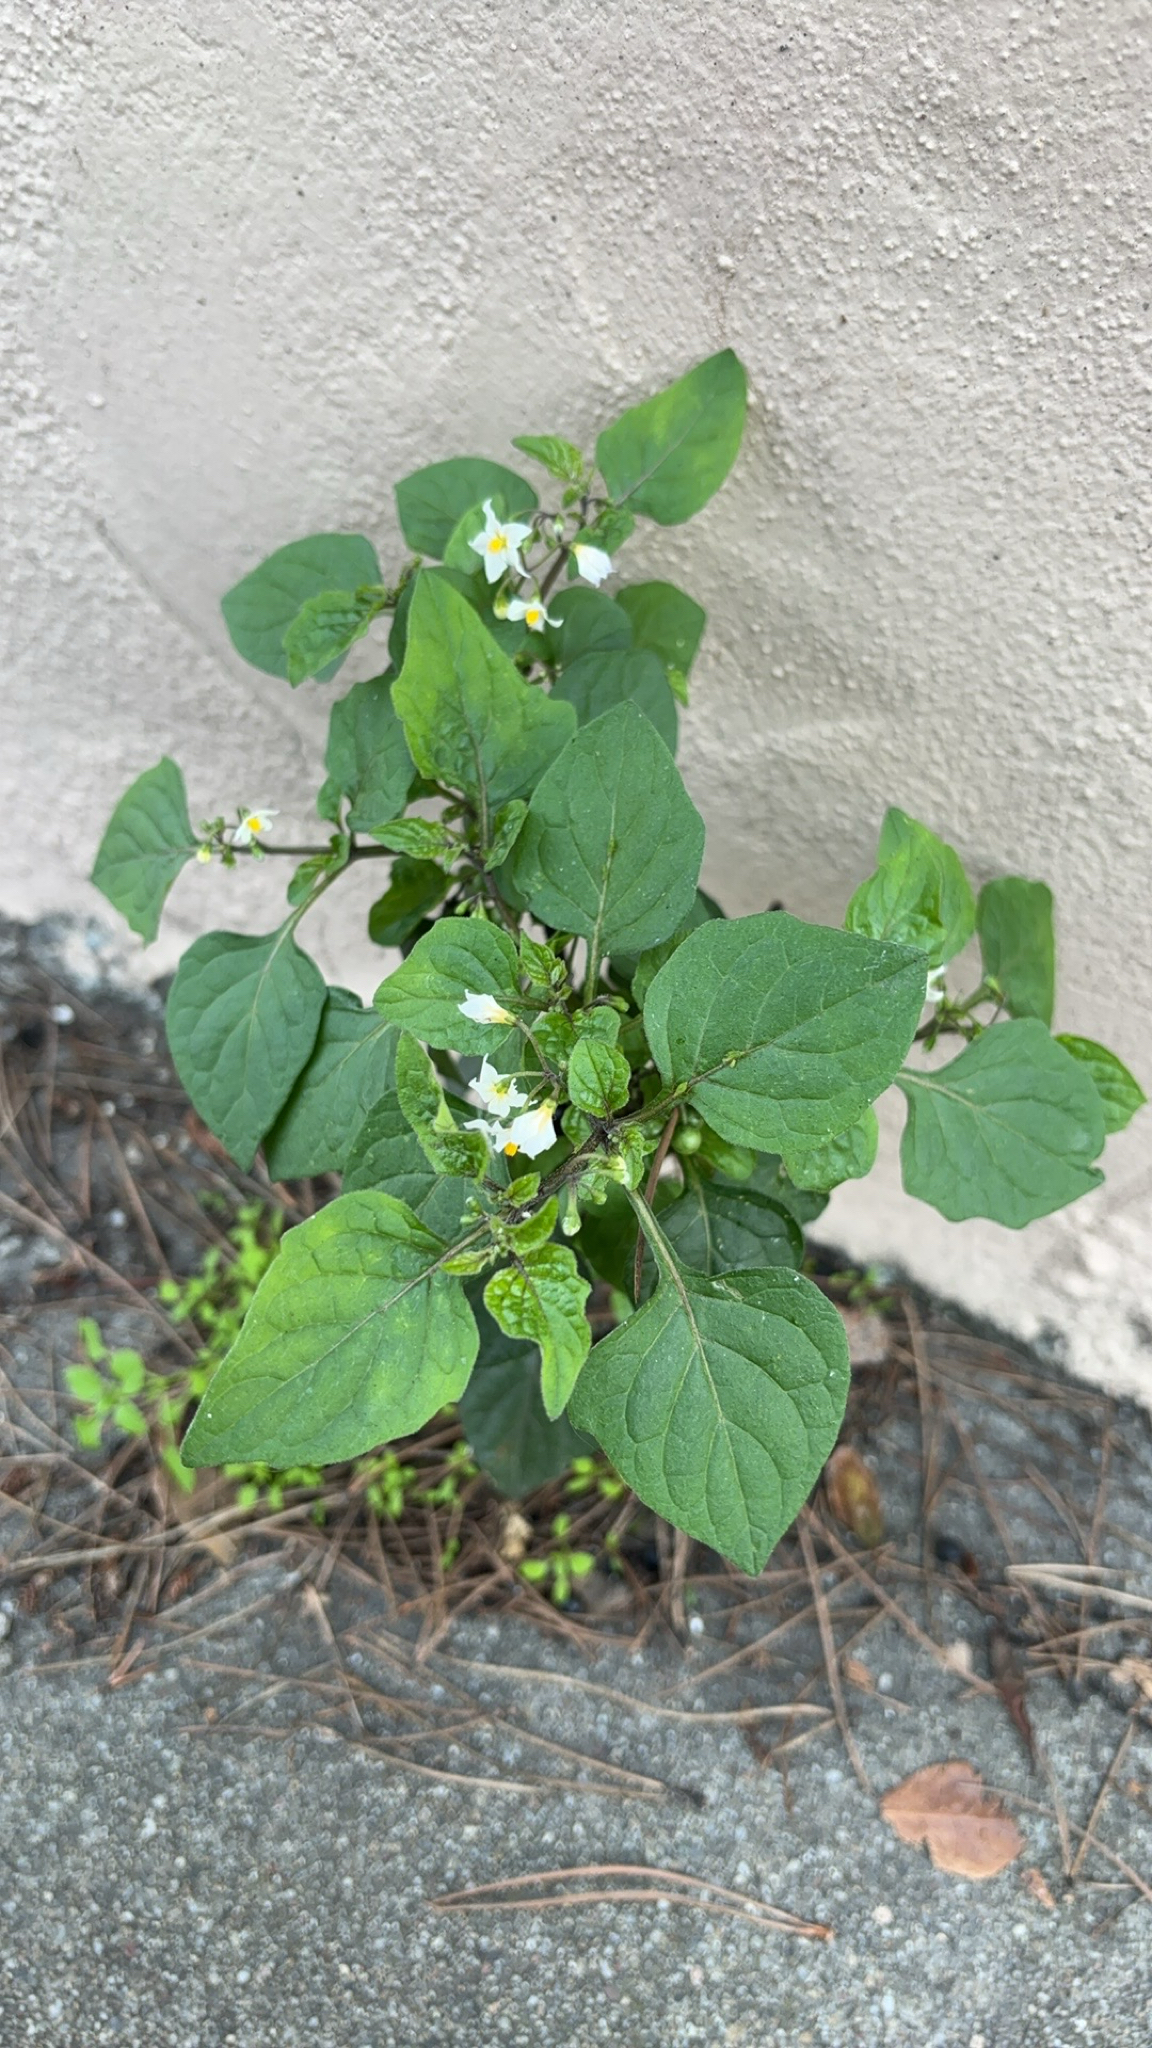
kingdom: Plantae
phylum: Tracheophyta
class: Magnoliopsida
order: Solanales
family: Solanaceae
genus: Solanum
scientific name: Solanum nigrum
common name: Black nightshade
